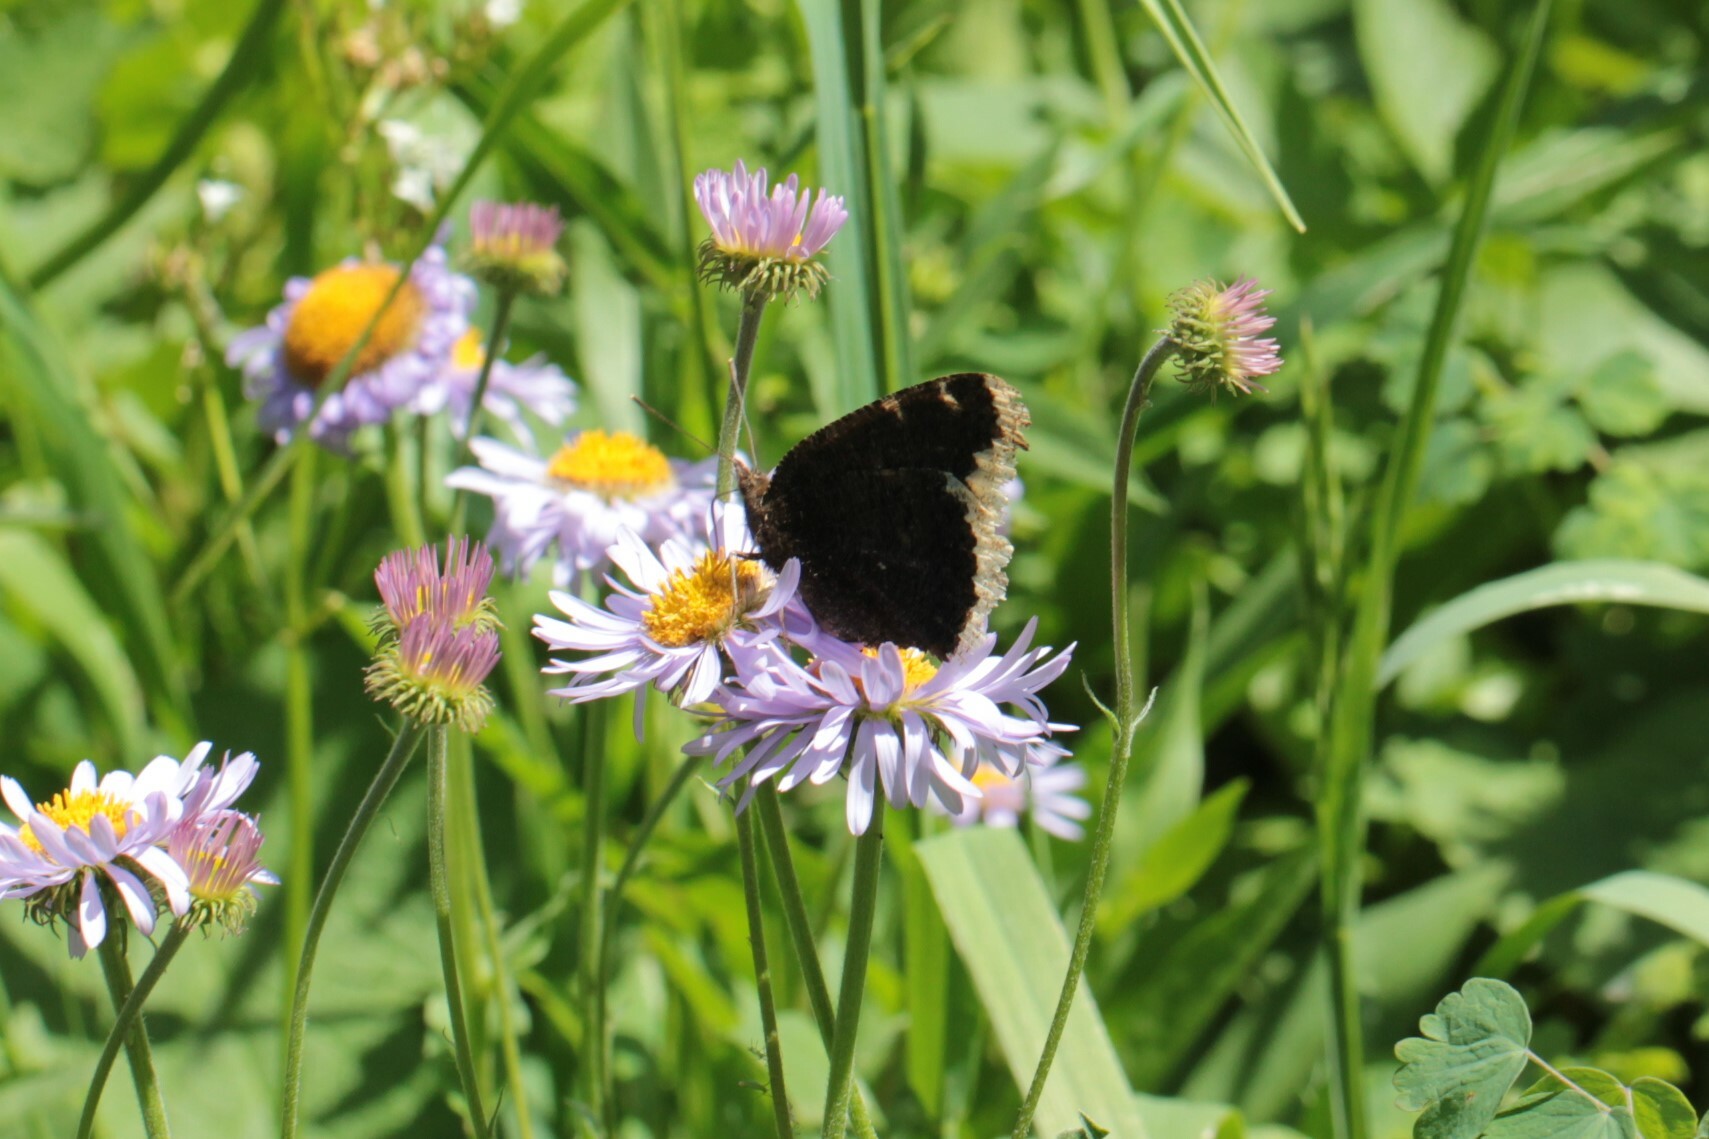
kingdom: Animalia
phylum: Arthropoda
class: Insecta
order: Lepidoptera
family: Nymphalidae
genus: Nymphalis
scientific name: Nymphalis antiopa
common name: Camberwell beauty
